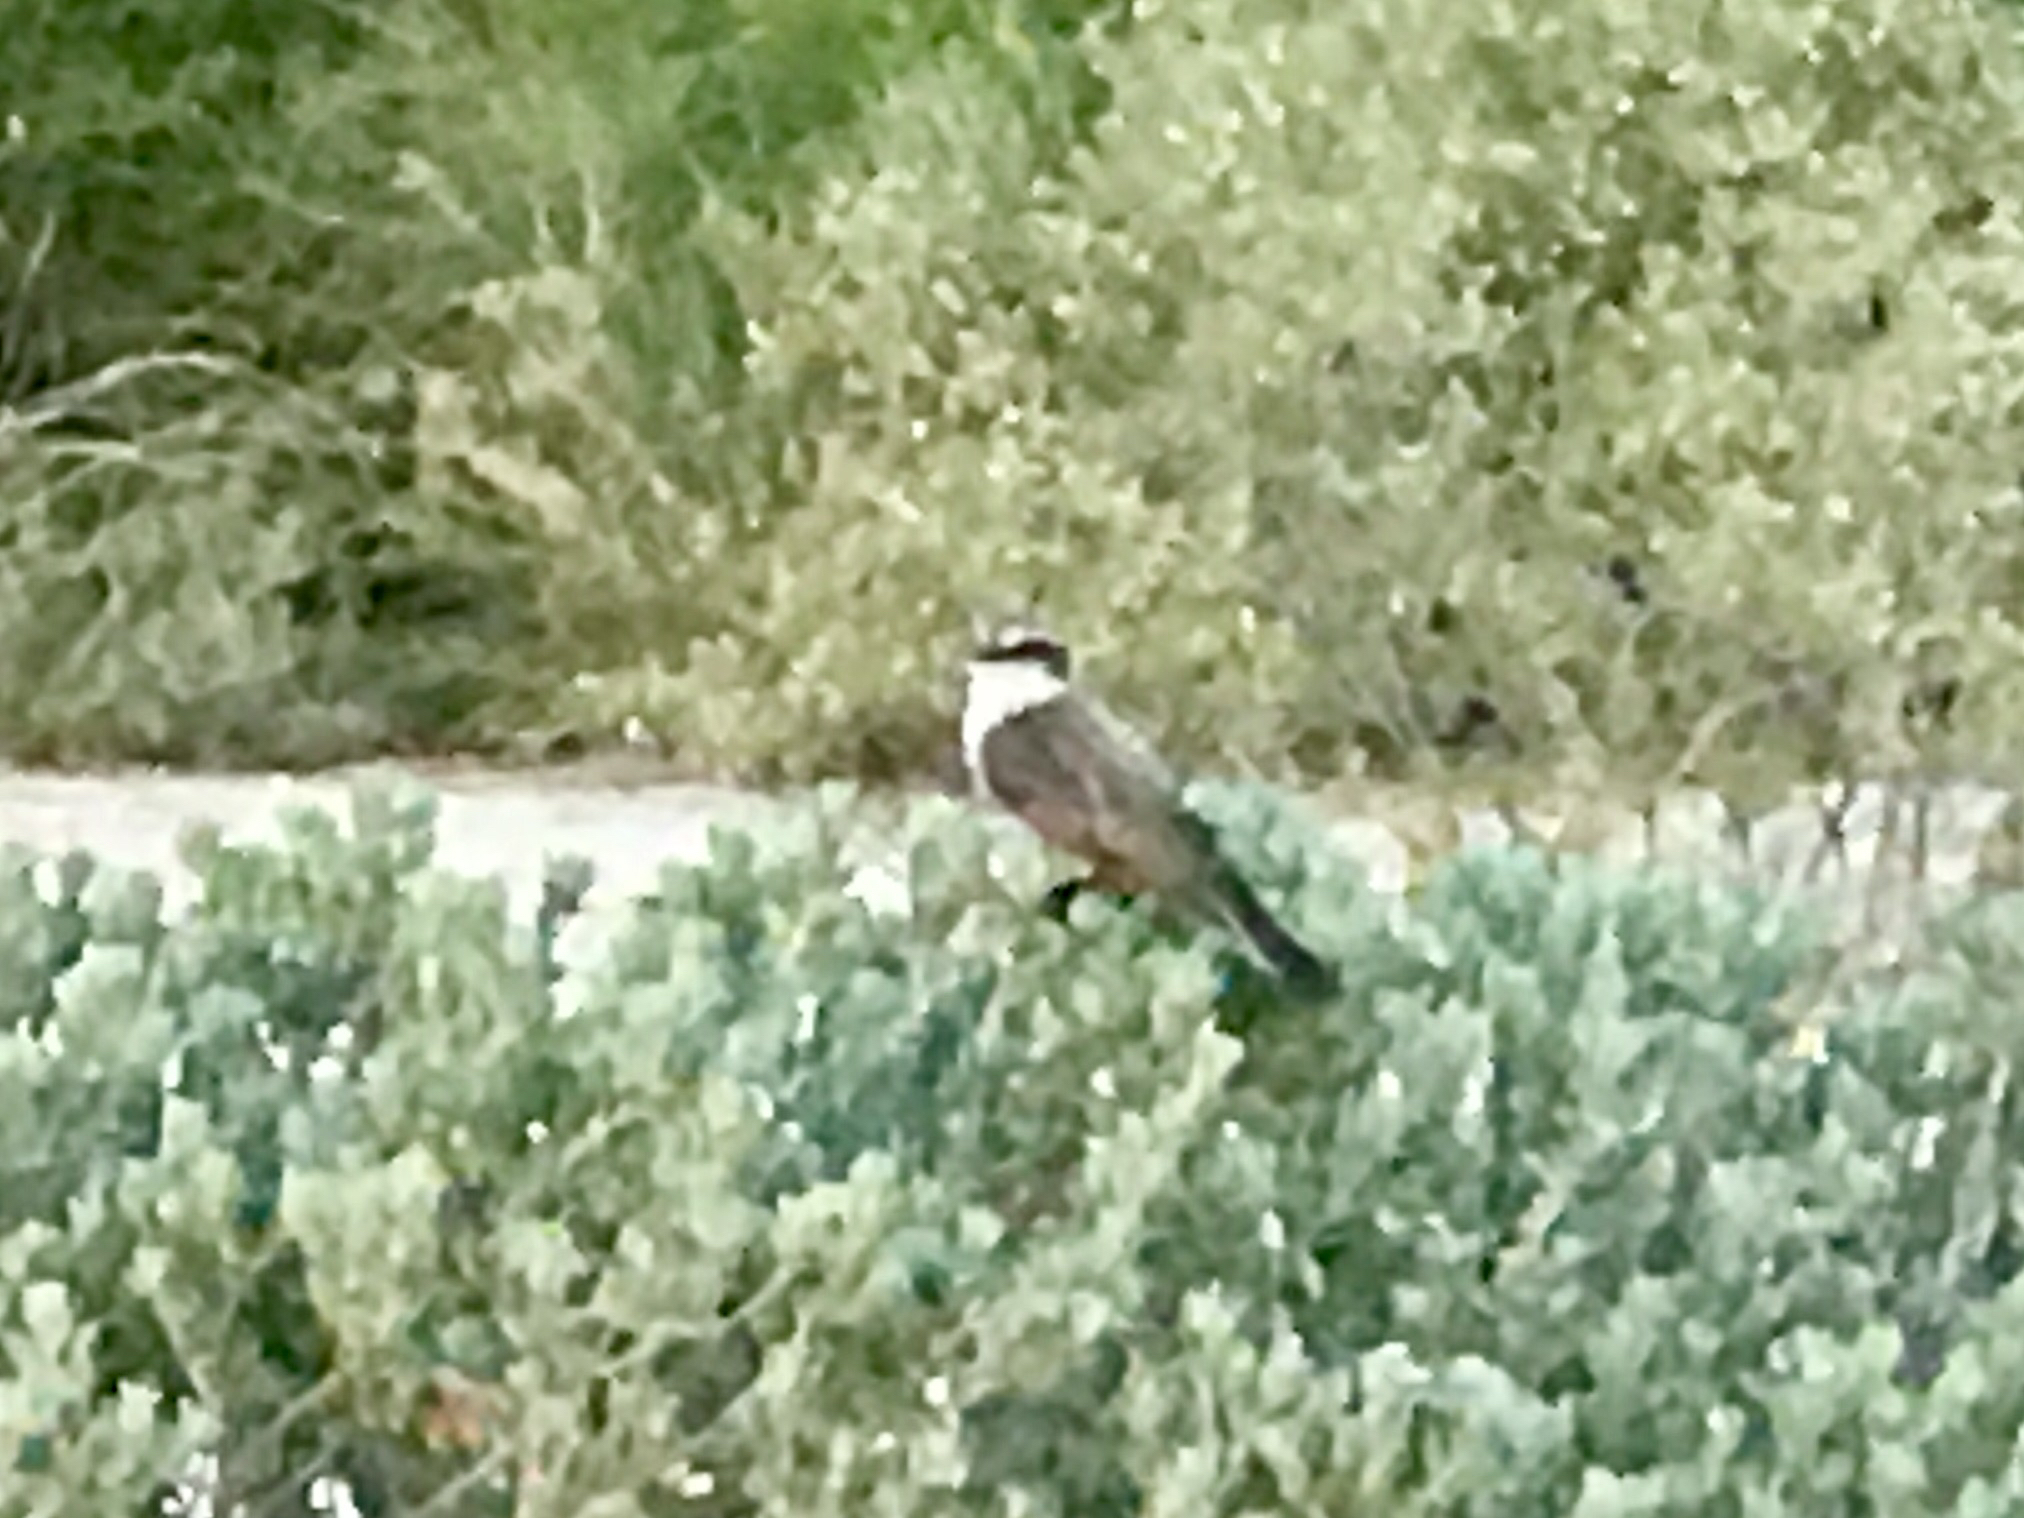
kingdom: Animalia
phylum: Chordata
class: Aves
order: Passeriformes
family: Tyrannidae
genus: Pyrocephalus
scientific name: Pyrocephalus rubinus
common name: Vermilion flycatcher
